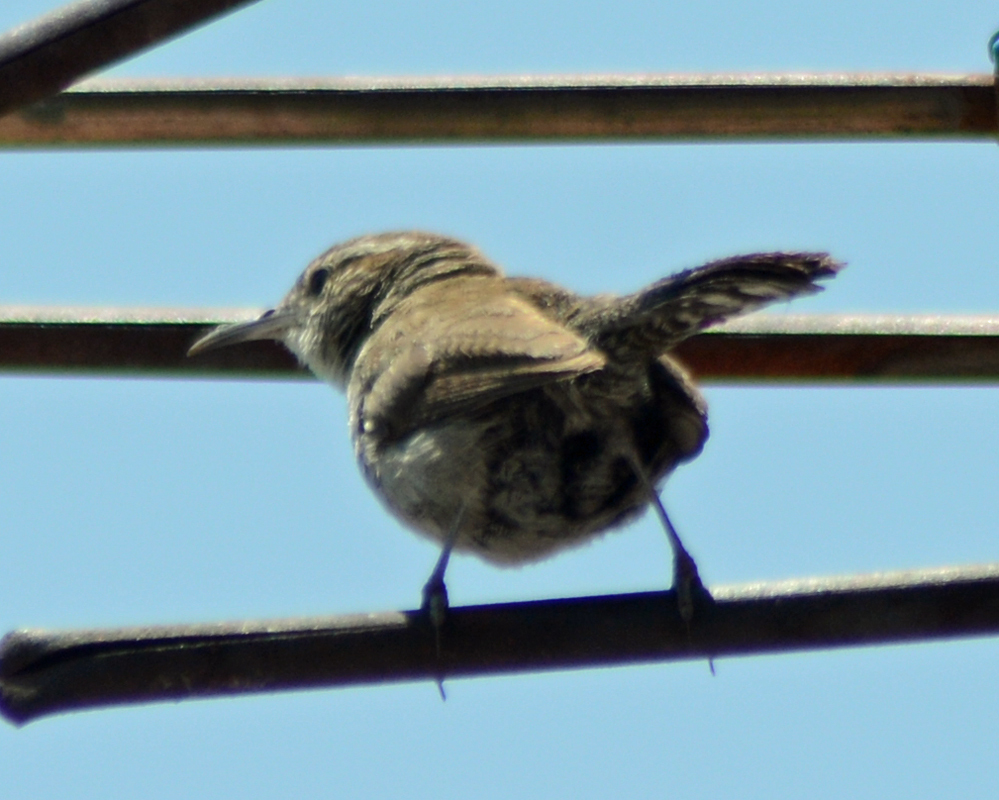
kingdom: Animalia
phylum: Chordata
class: Aves
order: Passeriformes
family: Troglodytidae
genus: Thryomanes
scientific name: Thryomanes bewickii
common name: Bewick's wren
